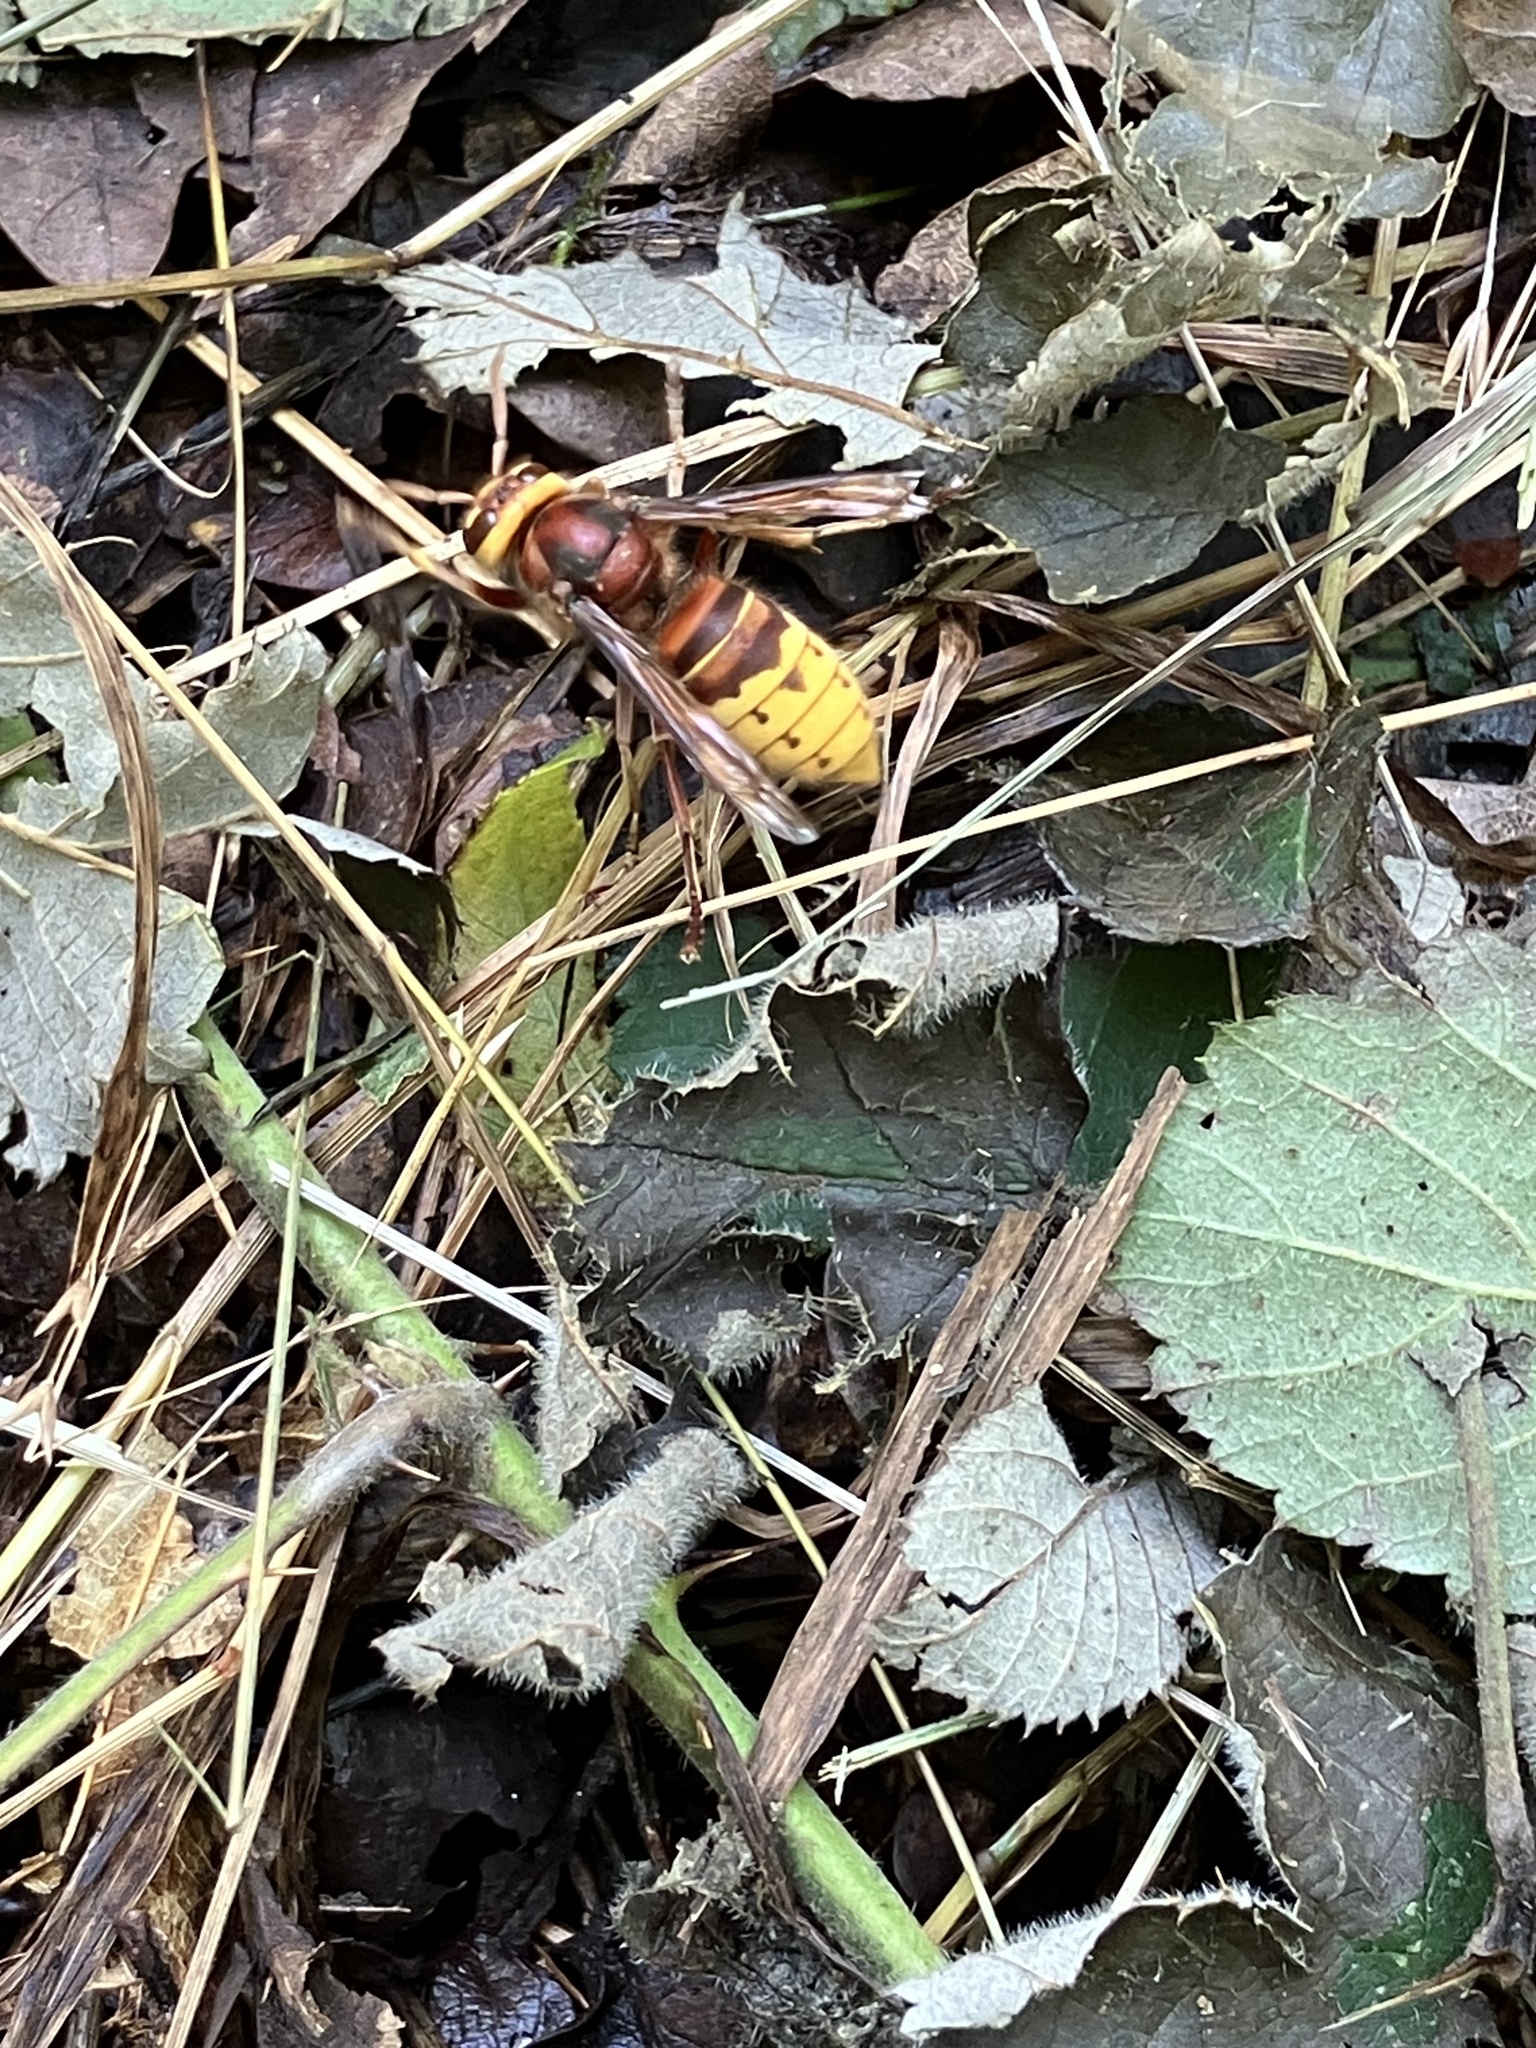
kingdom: Animalia
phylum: Arthropoda
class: Insecta
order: Hymenoptera
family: Vespidae
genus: Vespa
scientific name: Vespa crabro
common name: Hornet
